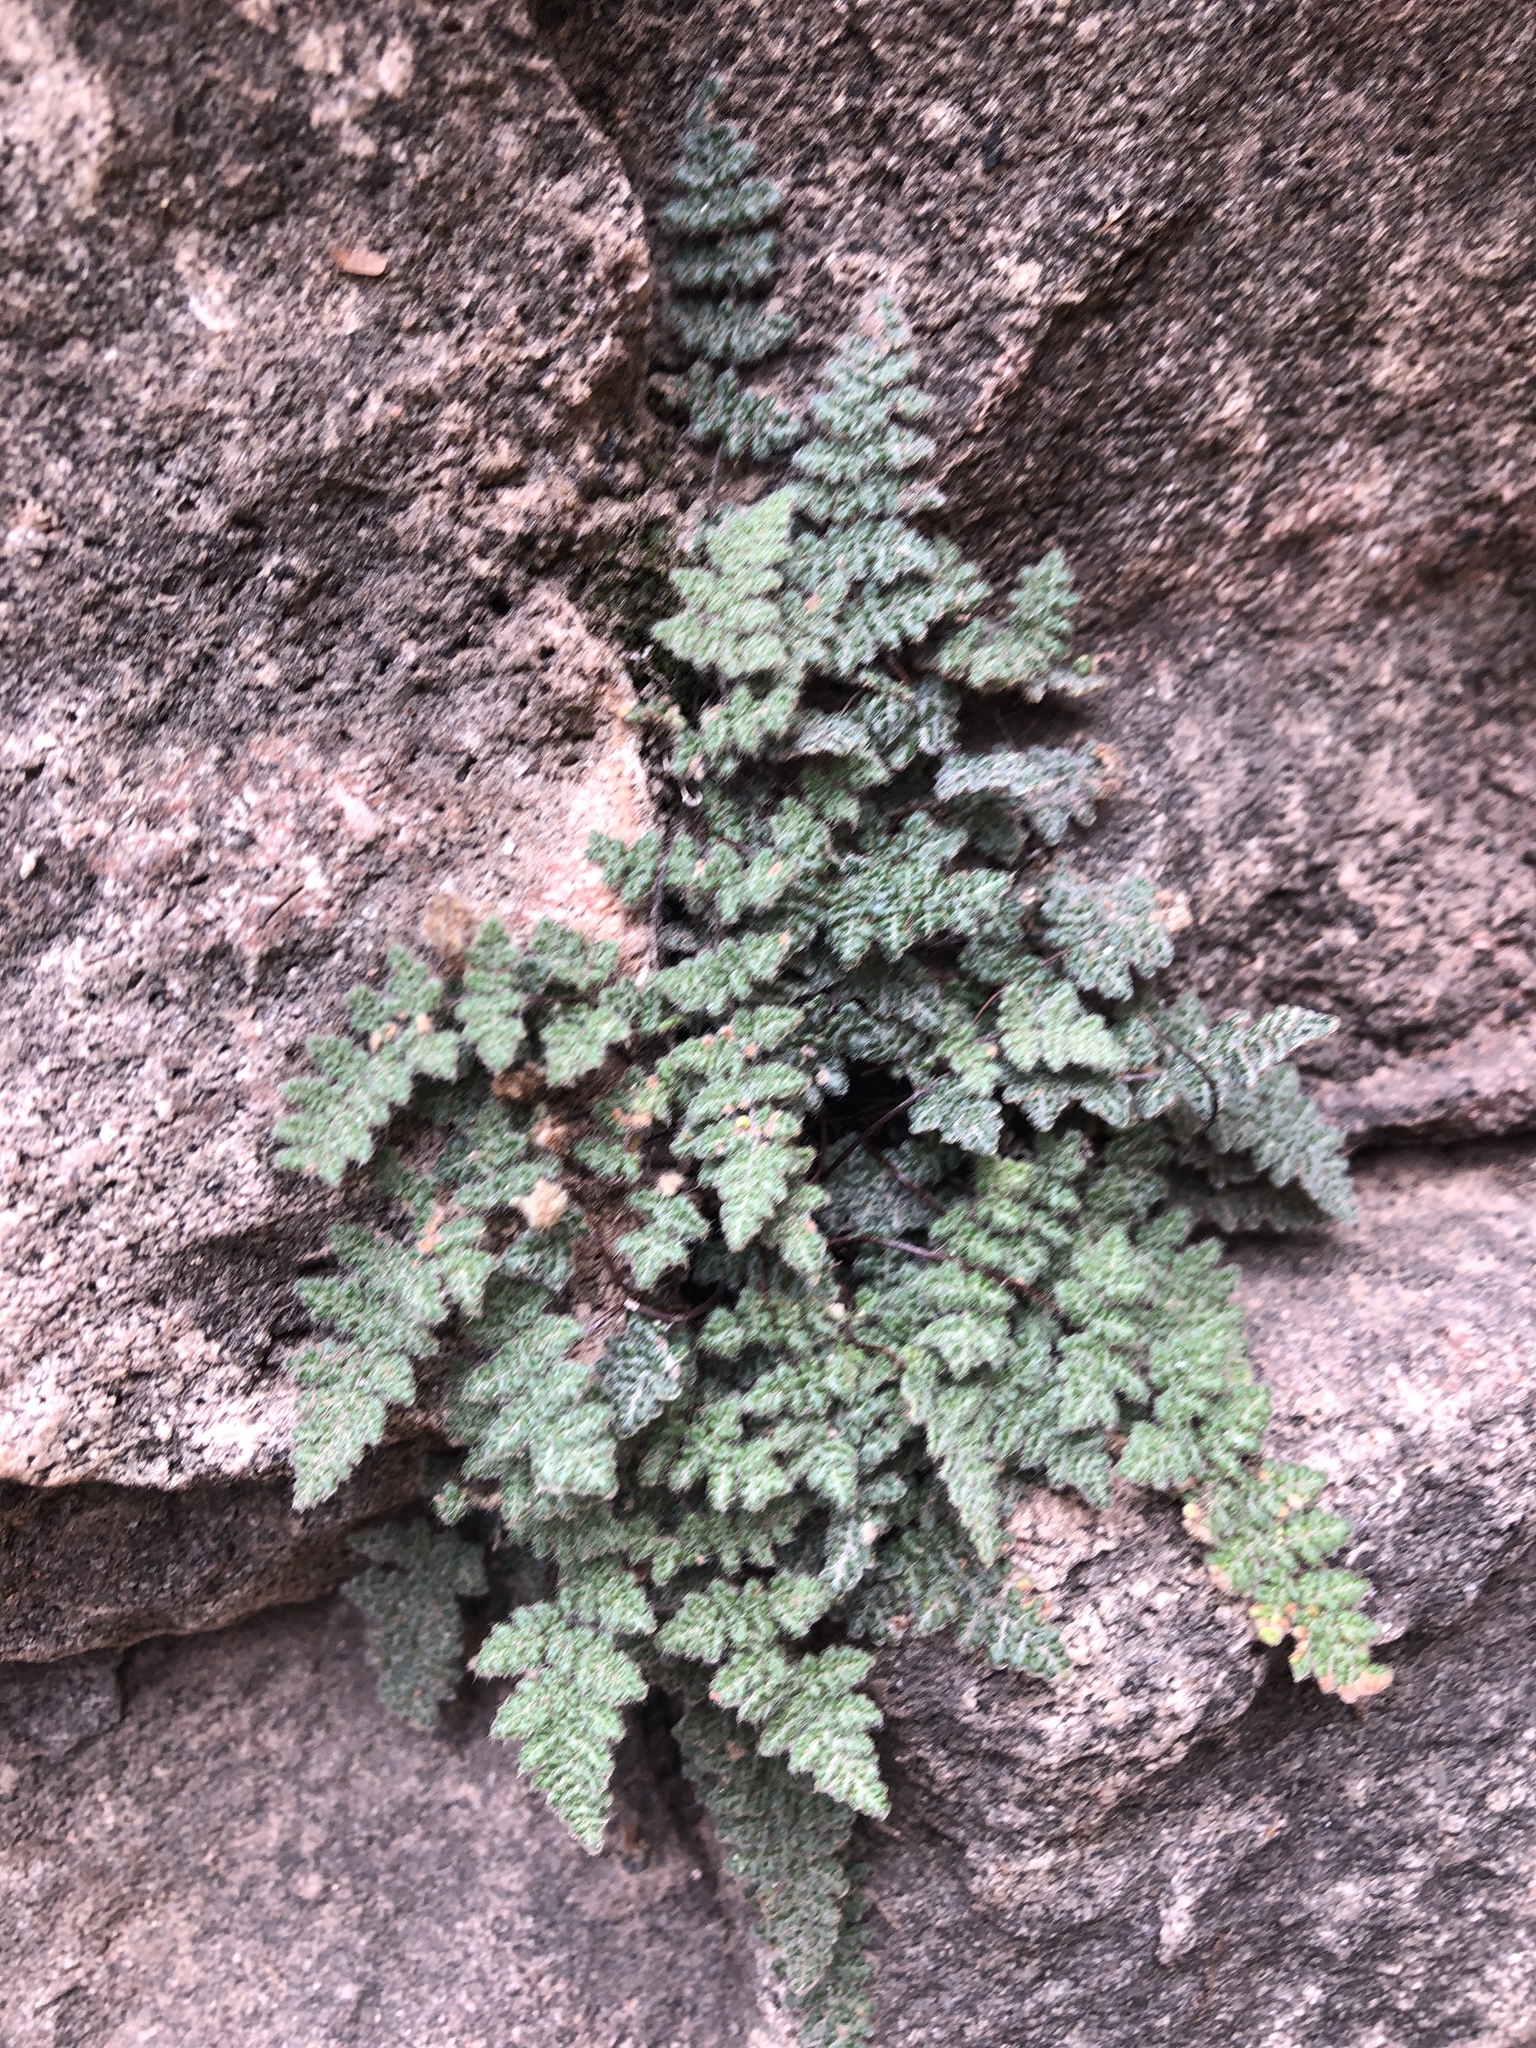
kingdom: Plantae
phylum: Tracheophyta
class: Polypodiopsida
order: Polypodiales
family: Pteridaceae
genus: Myriopteris
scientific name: Myriopteris gracilis
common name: Fee's lip fern
